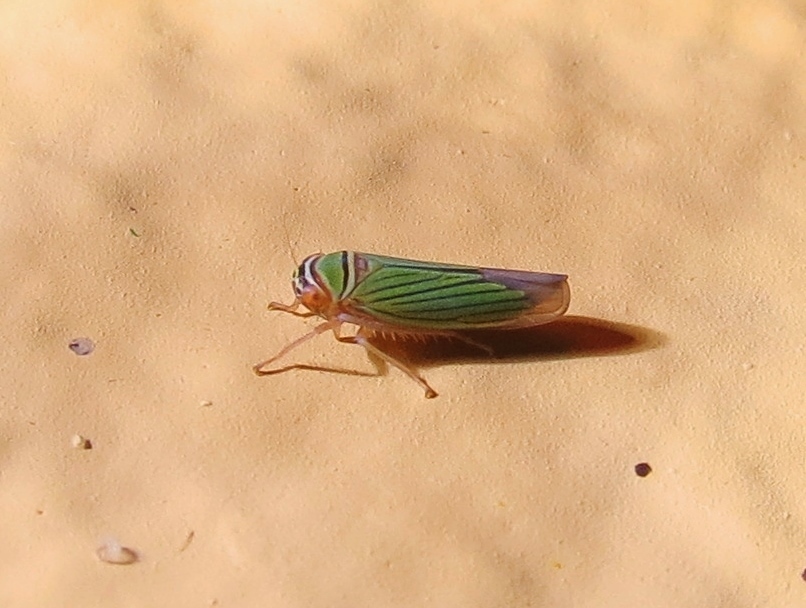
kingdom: Animalia
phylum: Arthropoda
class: Insecta
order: Hemiptera
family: Cicadellidae
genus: Tylozygus
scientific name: Tylozygus fuscolineellus
